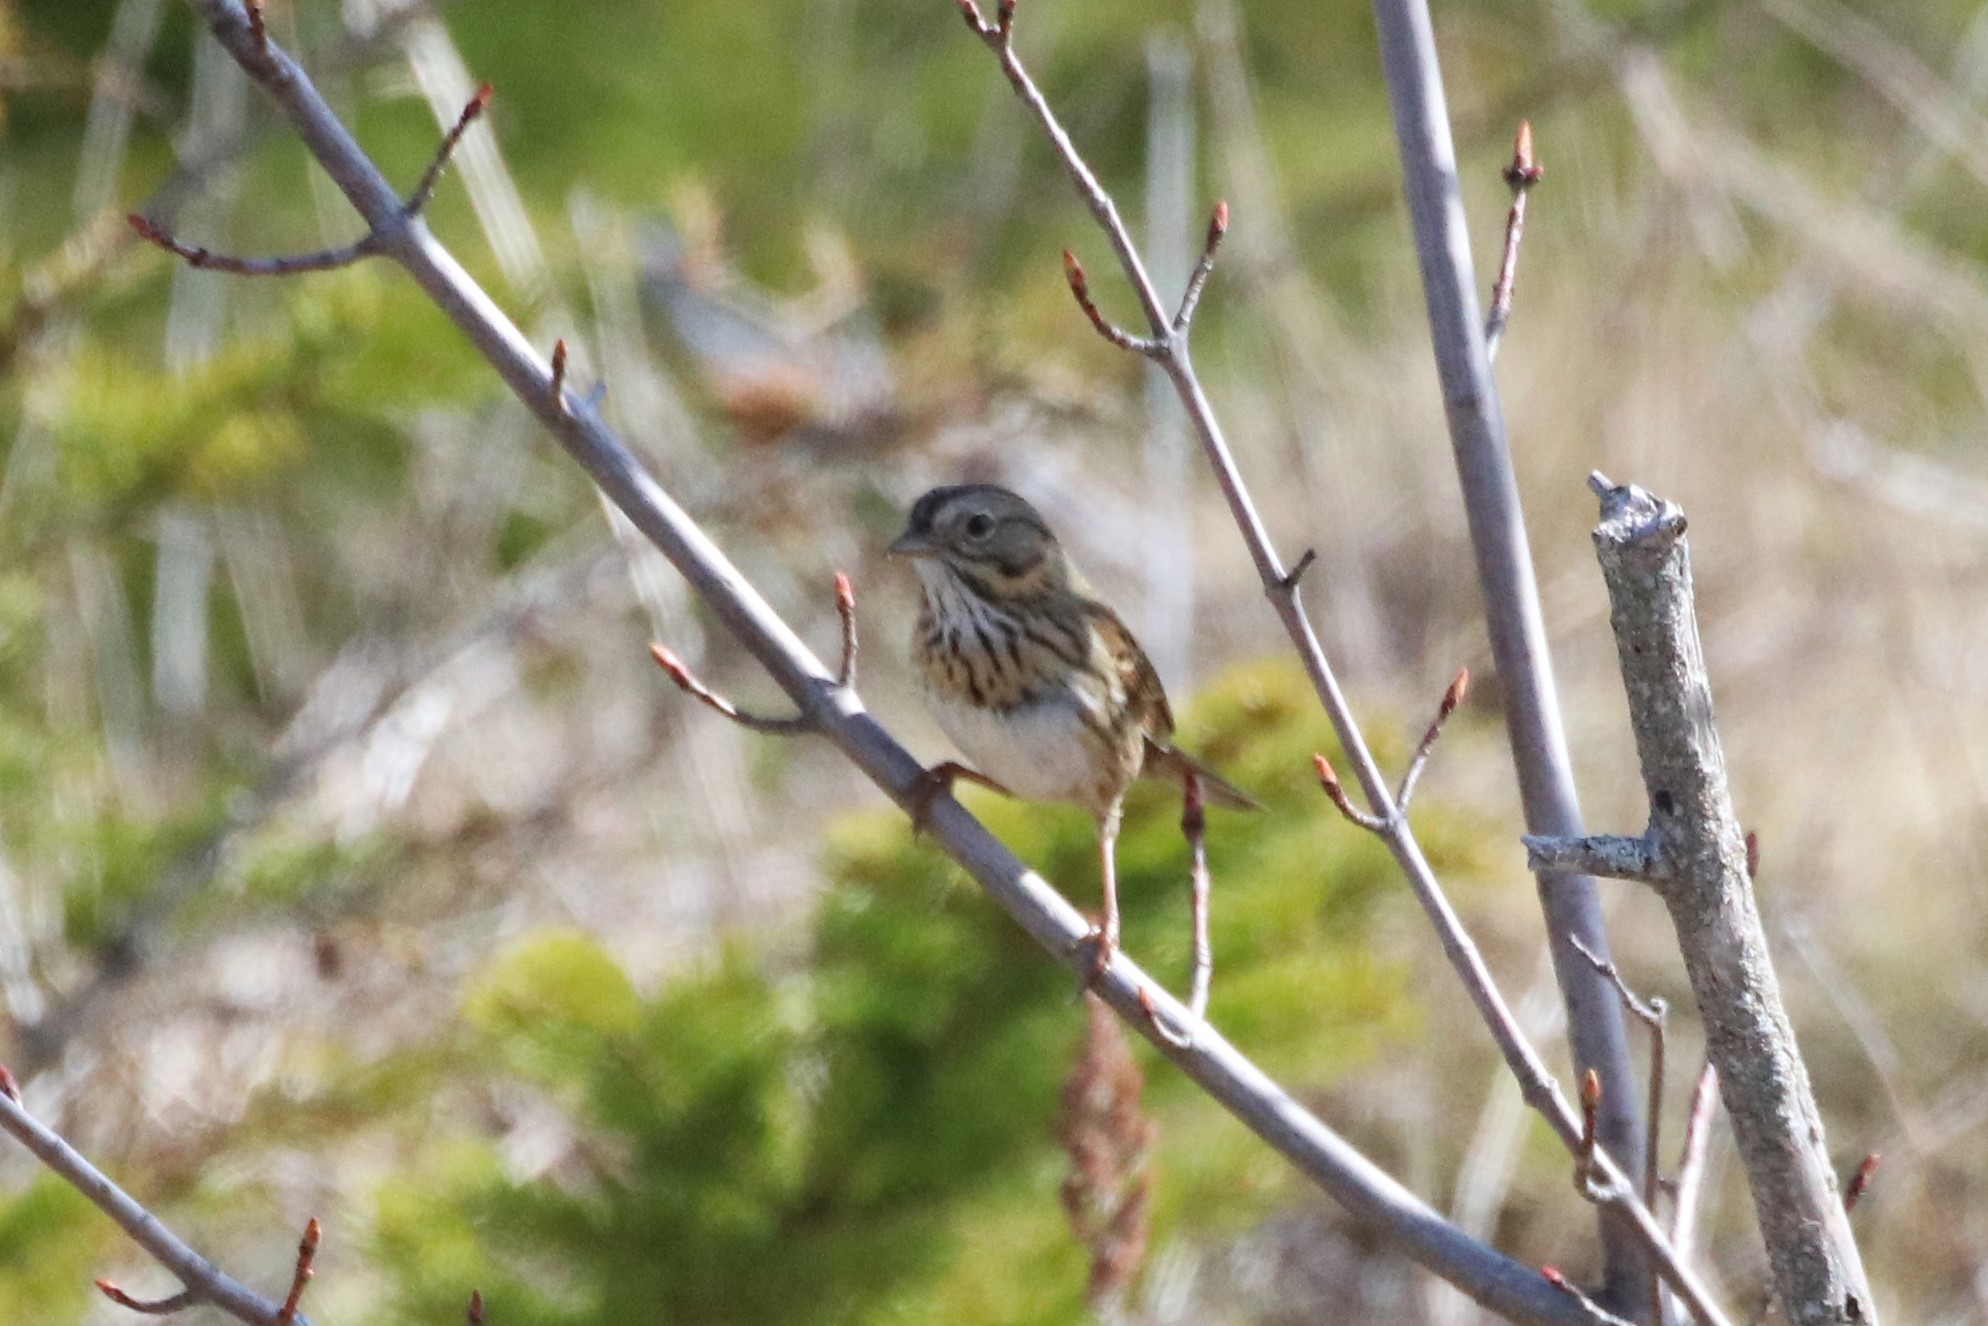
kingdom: Animalia
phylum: Chordata
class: Aves
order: Passeriformes
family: Passerellidae
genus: Melospiza
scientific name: Melospiza lincolnii
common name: Lincoln's sparrow
